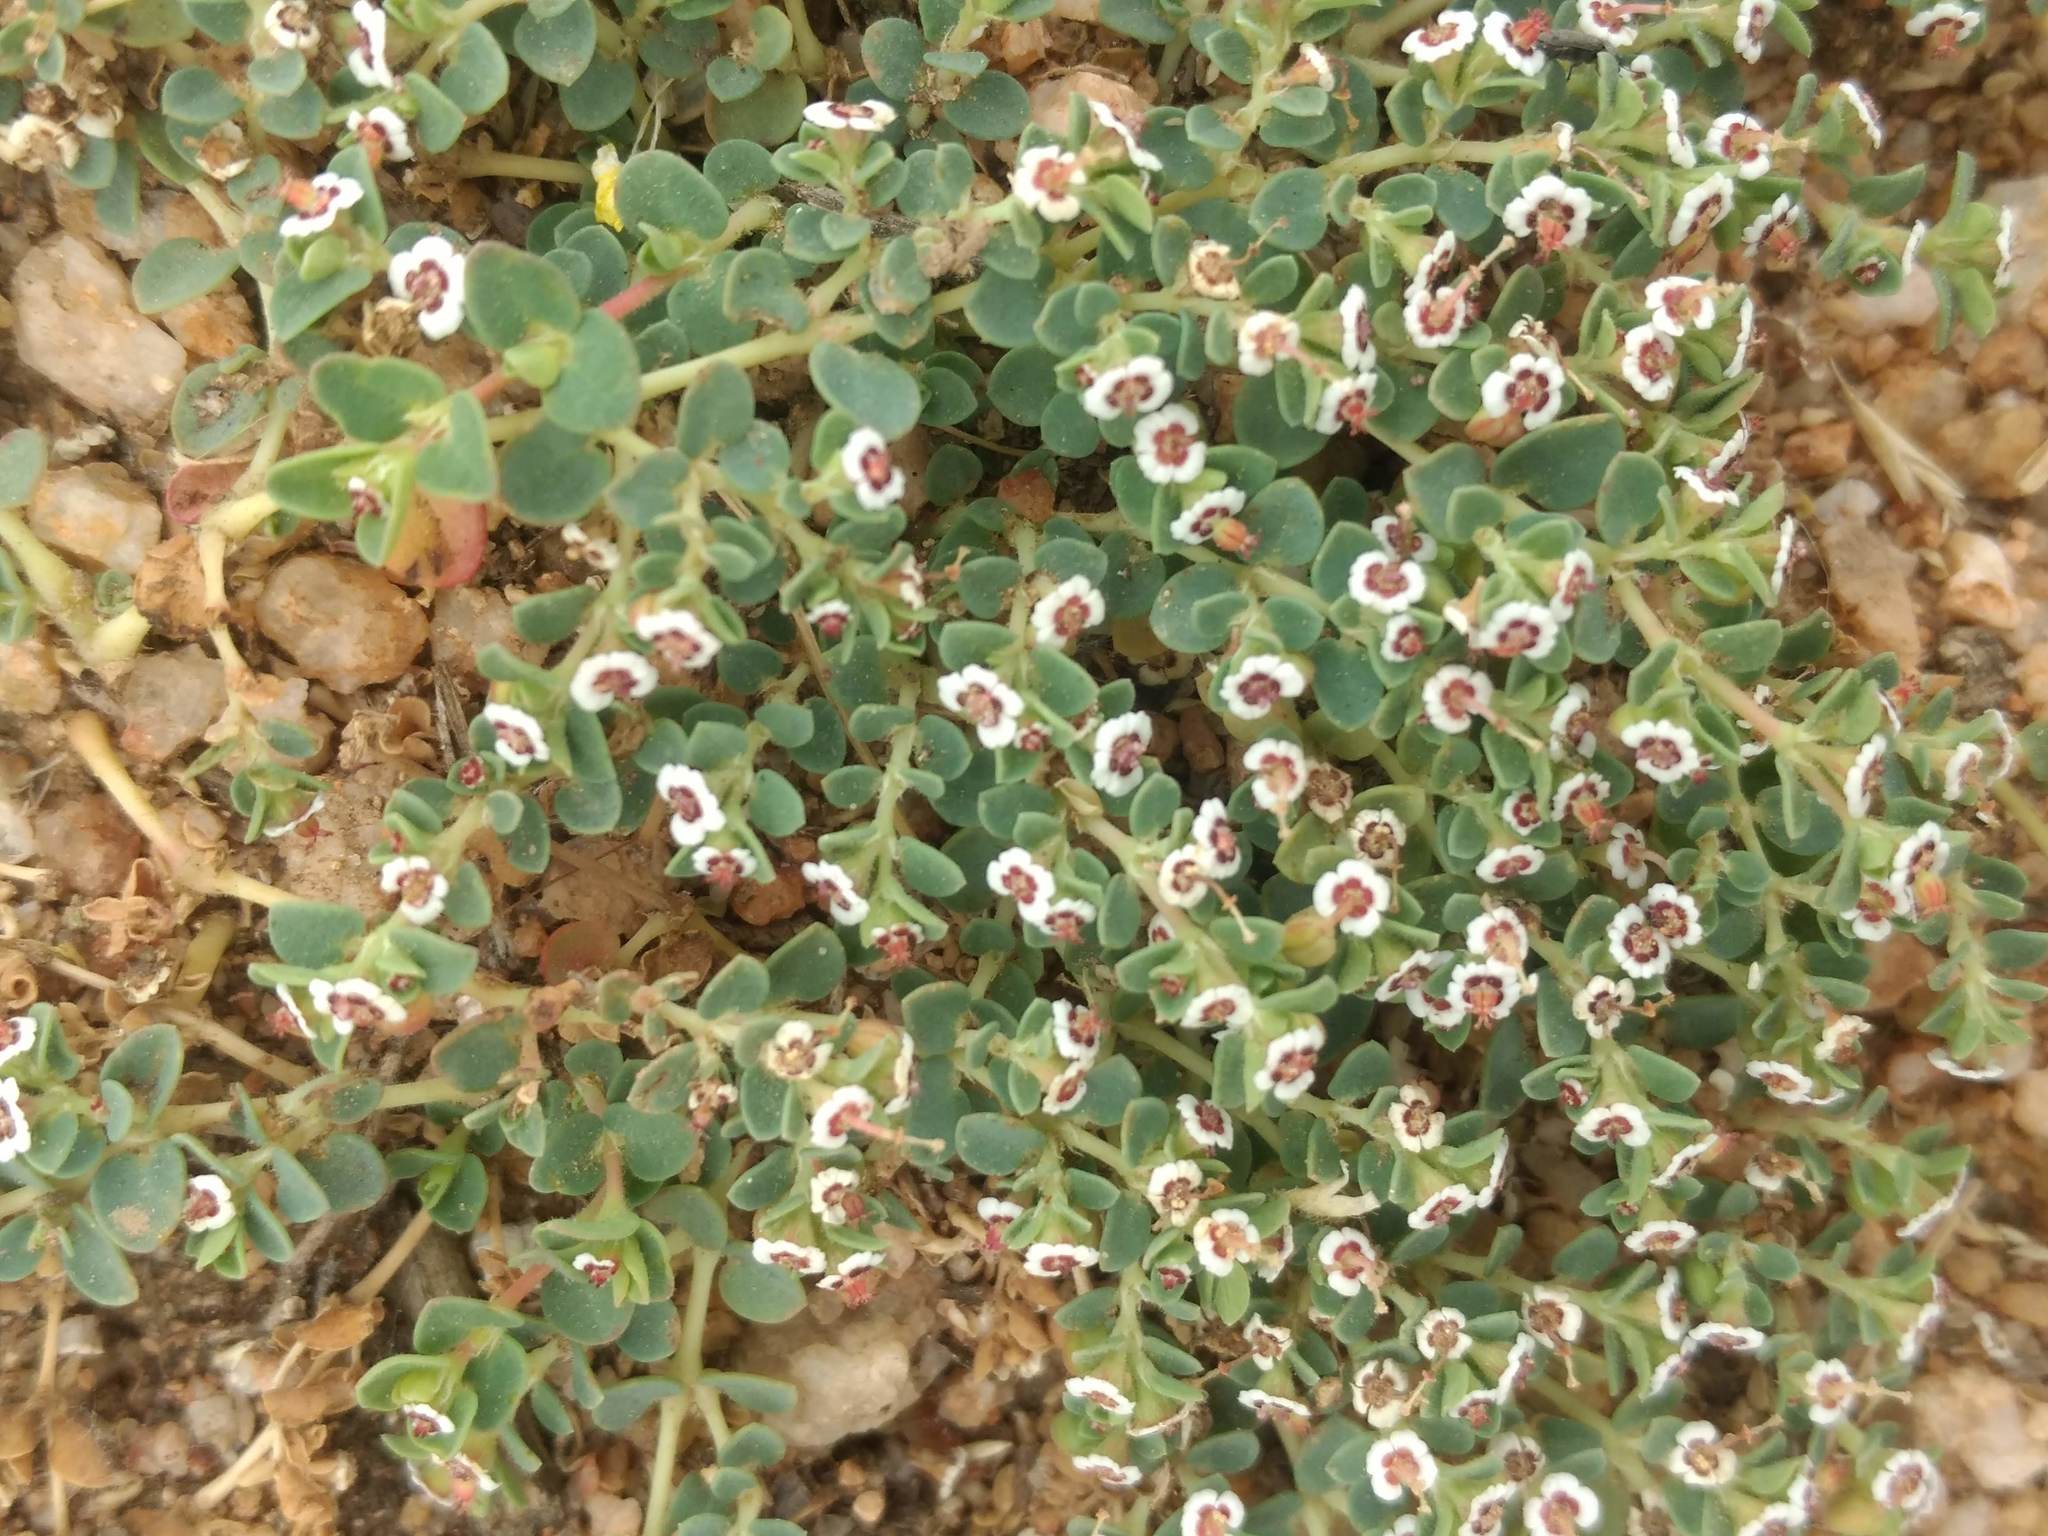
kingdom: Plantae
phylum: Tracheophyta
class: Magnoliopsida
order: Malpighiales
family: Euphorbiaceae
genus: Euphorbia
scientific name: Euphorbia polycarpa
